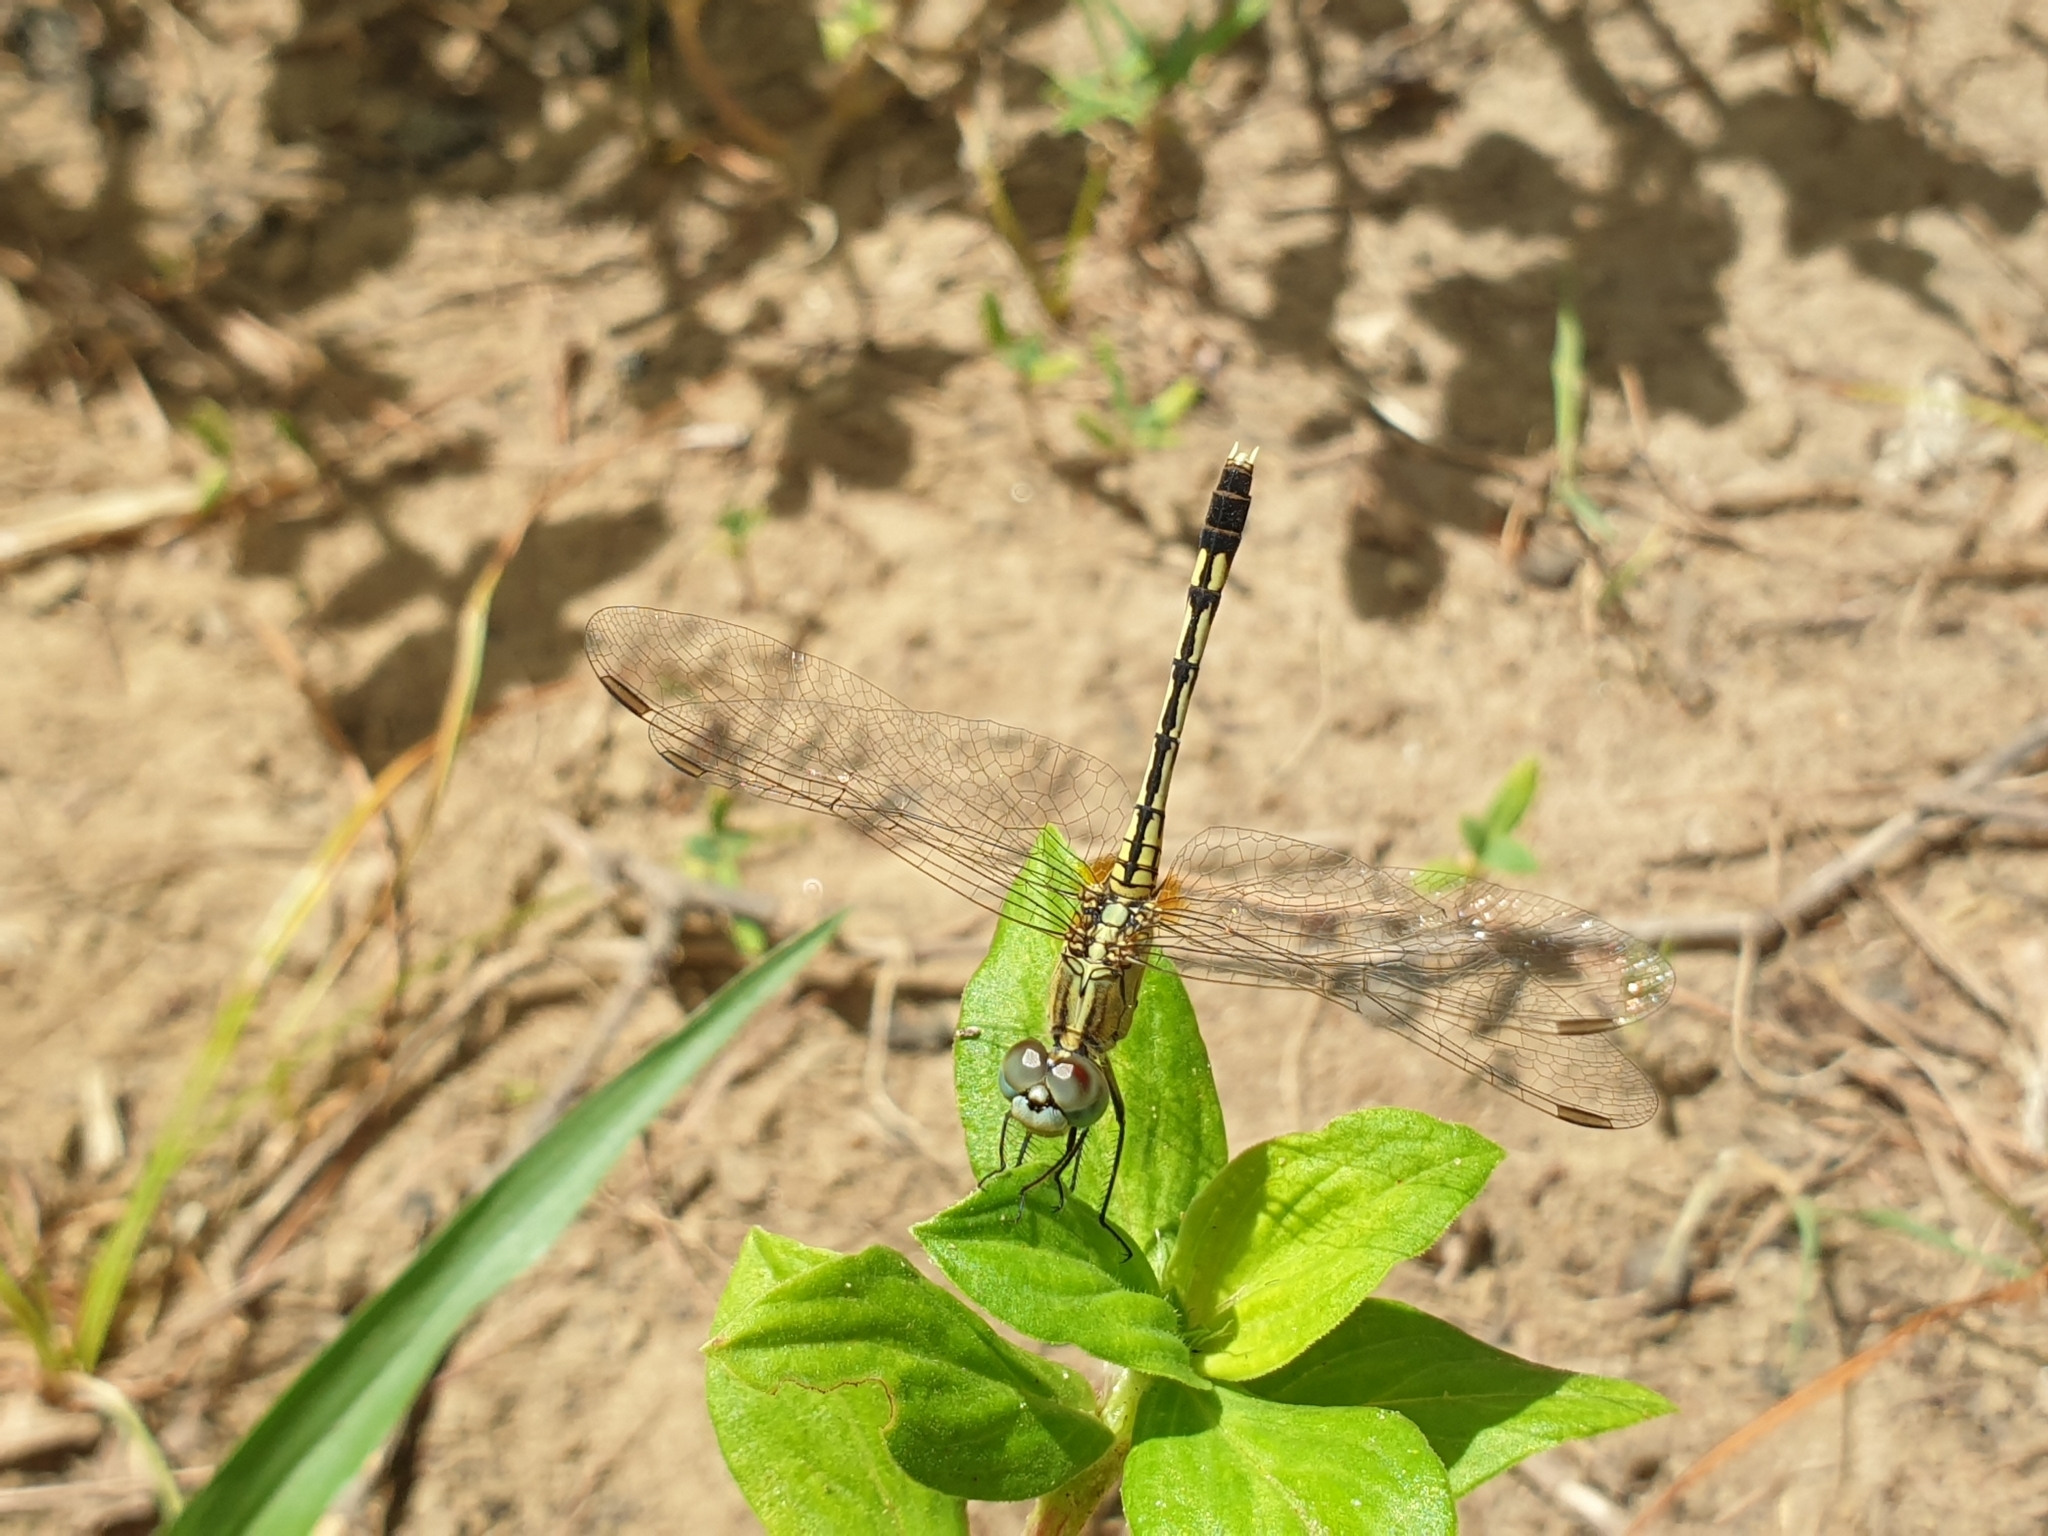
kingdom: Animalia
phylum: Arthropoda
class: Insecta
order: Odonata
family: Libellulidae
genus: Diplacodes
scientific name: Diplacodes trivialis
